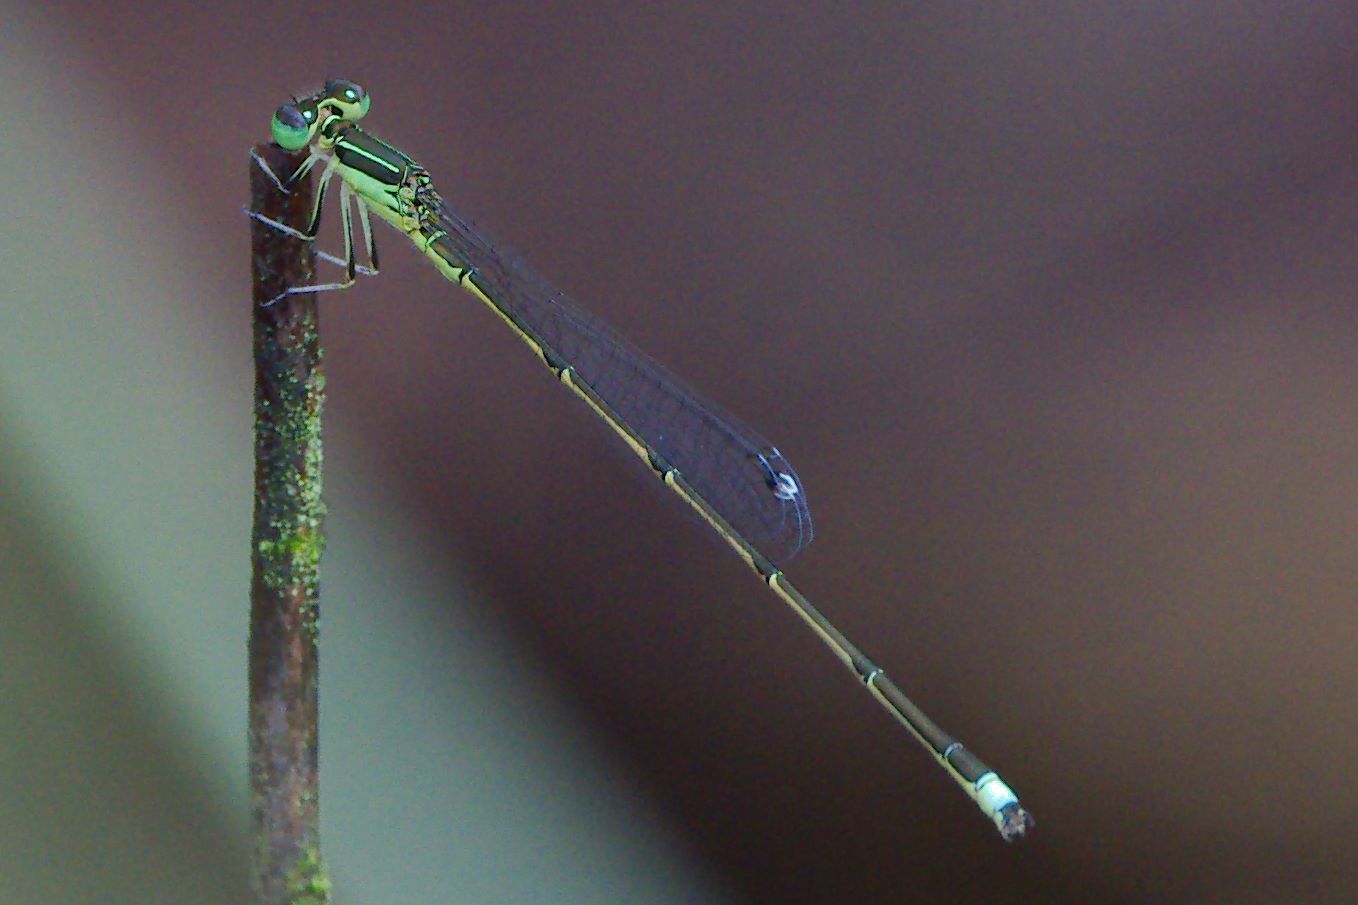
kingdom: Animalia
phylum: Arthropoda
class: Insecta
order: Odonata
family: Coenagrionidae
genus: Ischnura
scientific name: Ischnura prognata
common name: Furtive forktail
